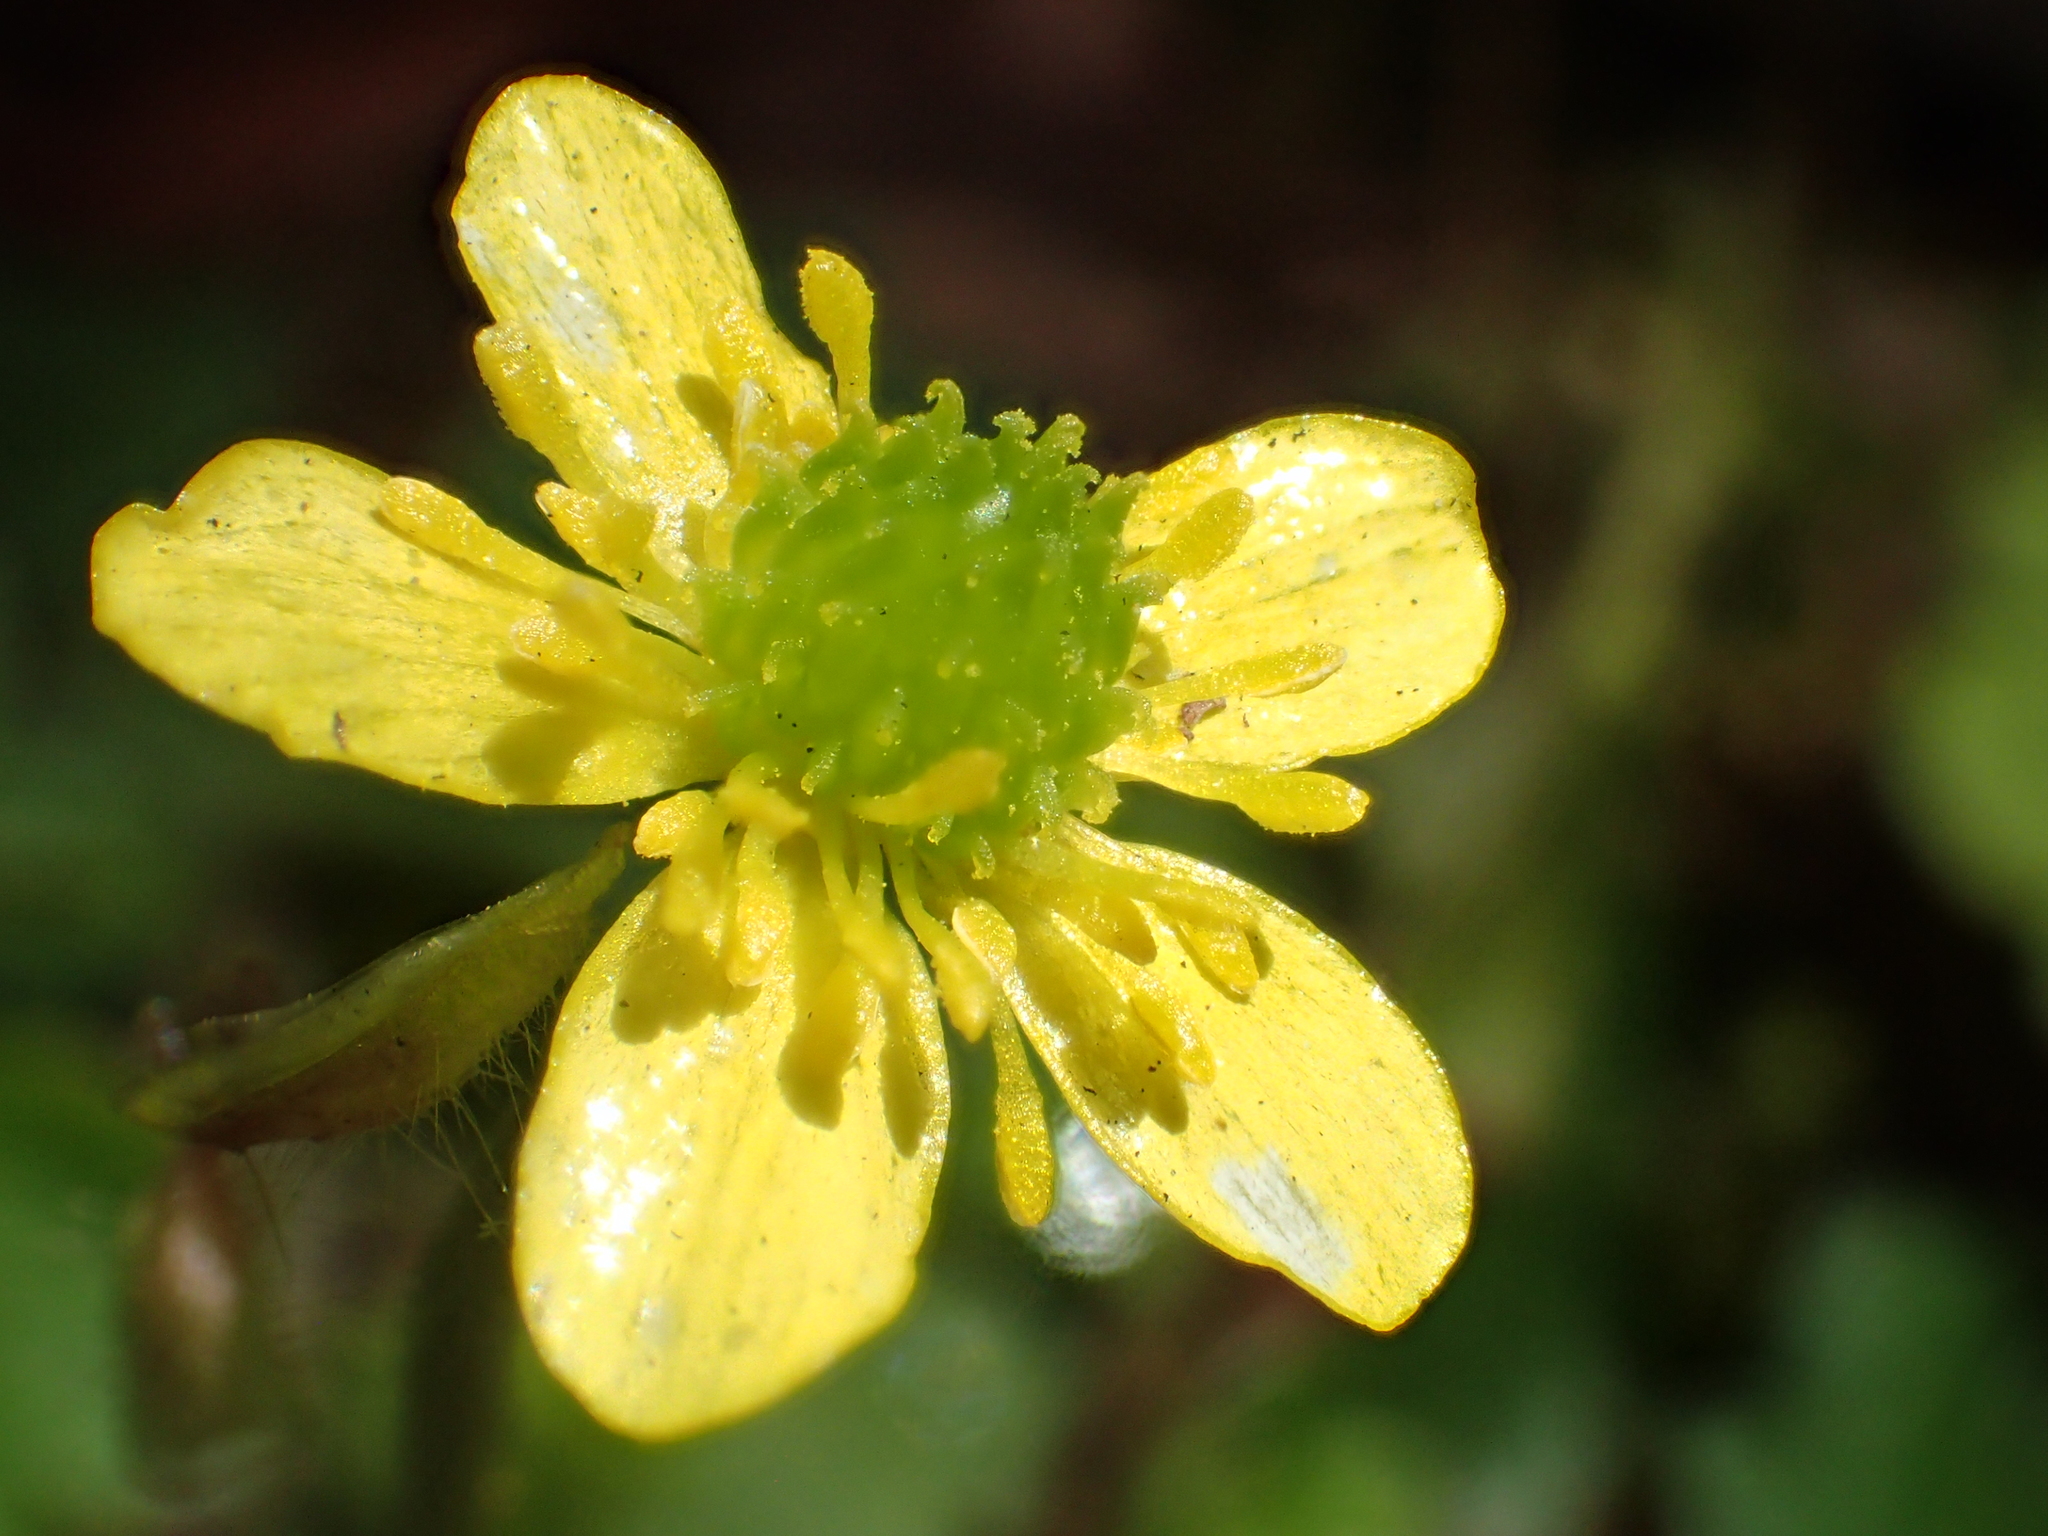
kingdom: Plantae
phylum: Tracheophyta
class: Magnoliopsida
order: Ranunculales
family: Ranunculaceae
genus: Ranunculus
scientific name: Ranunculus taisanensis
